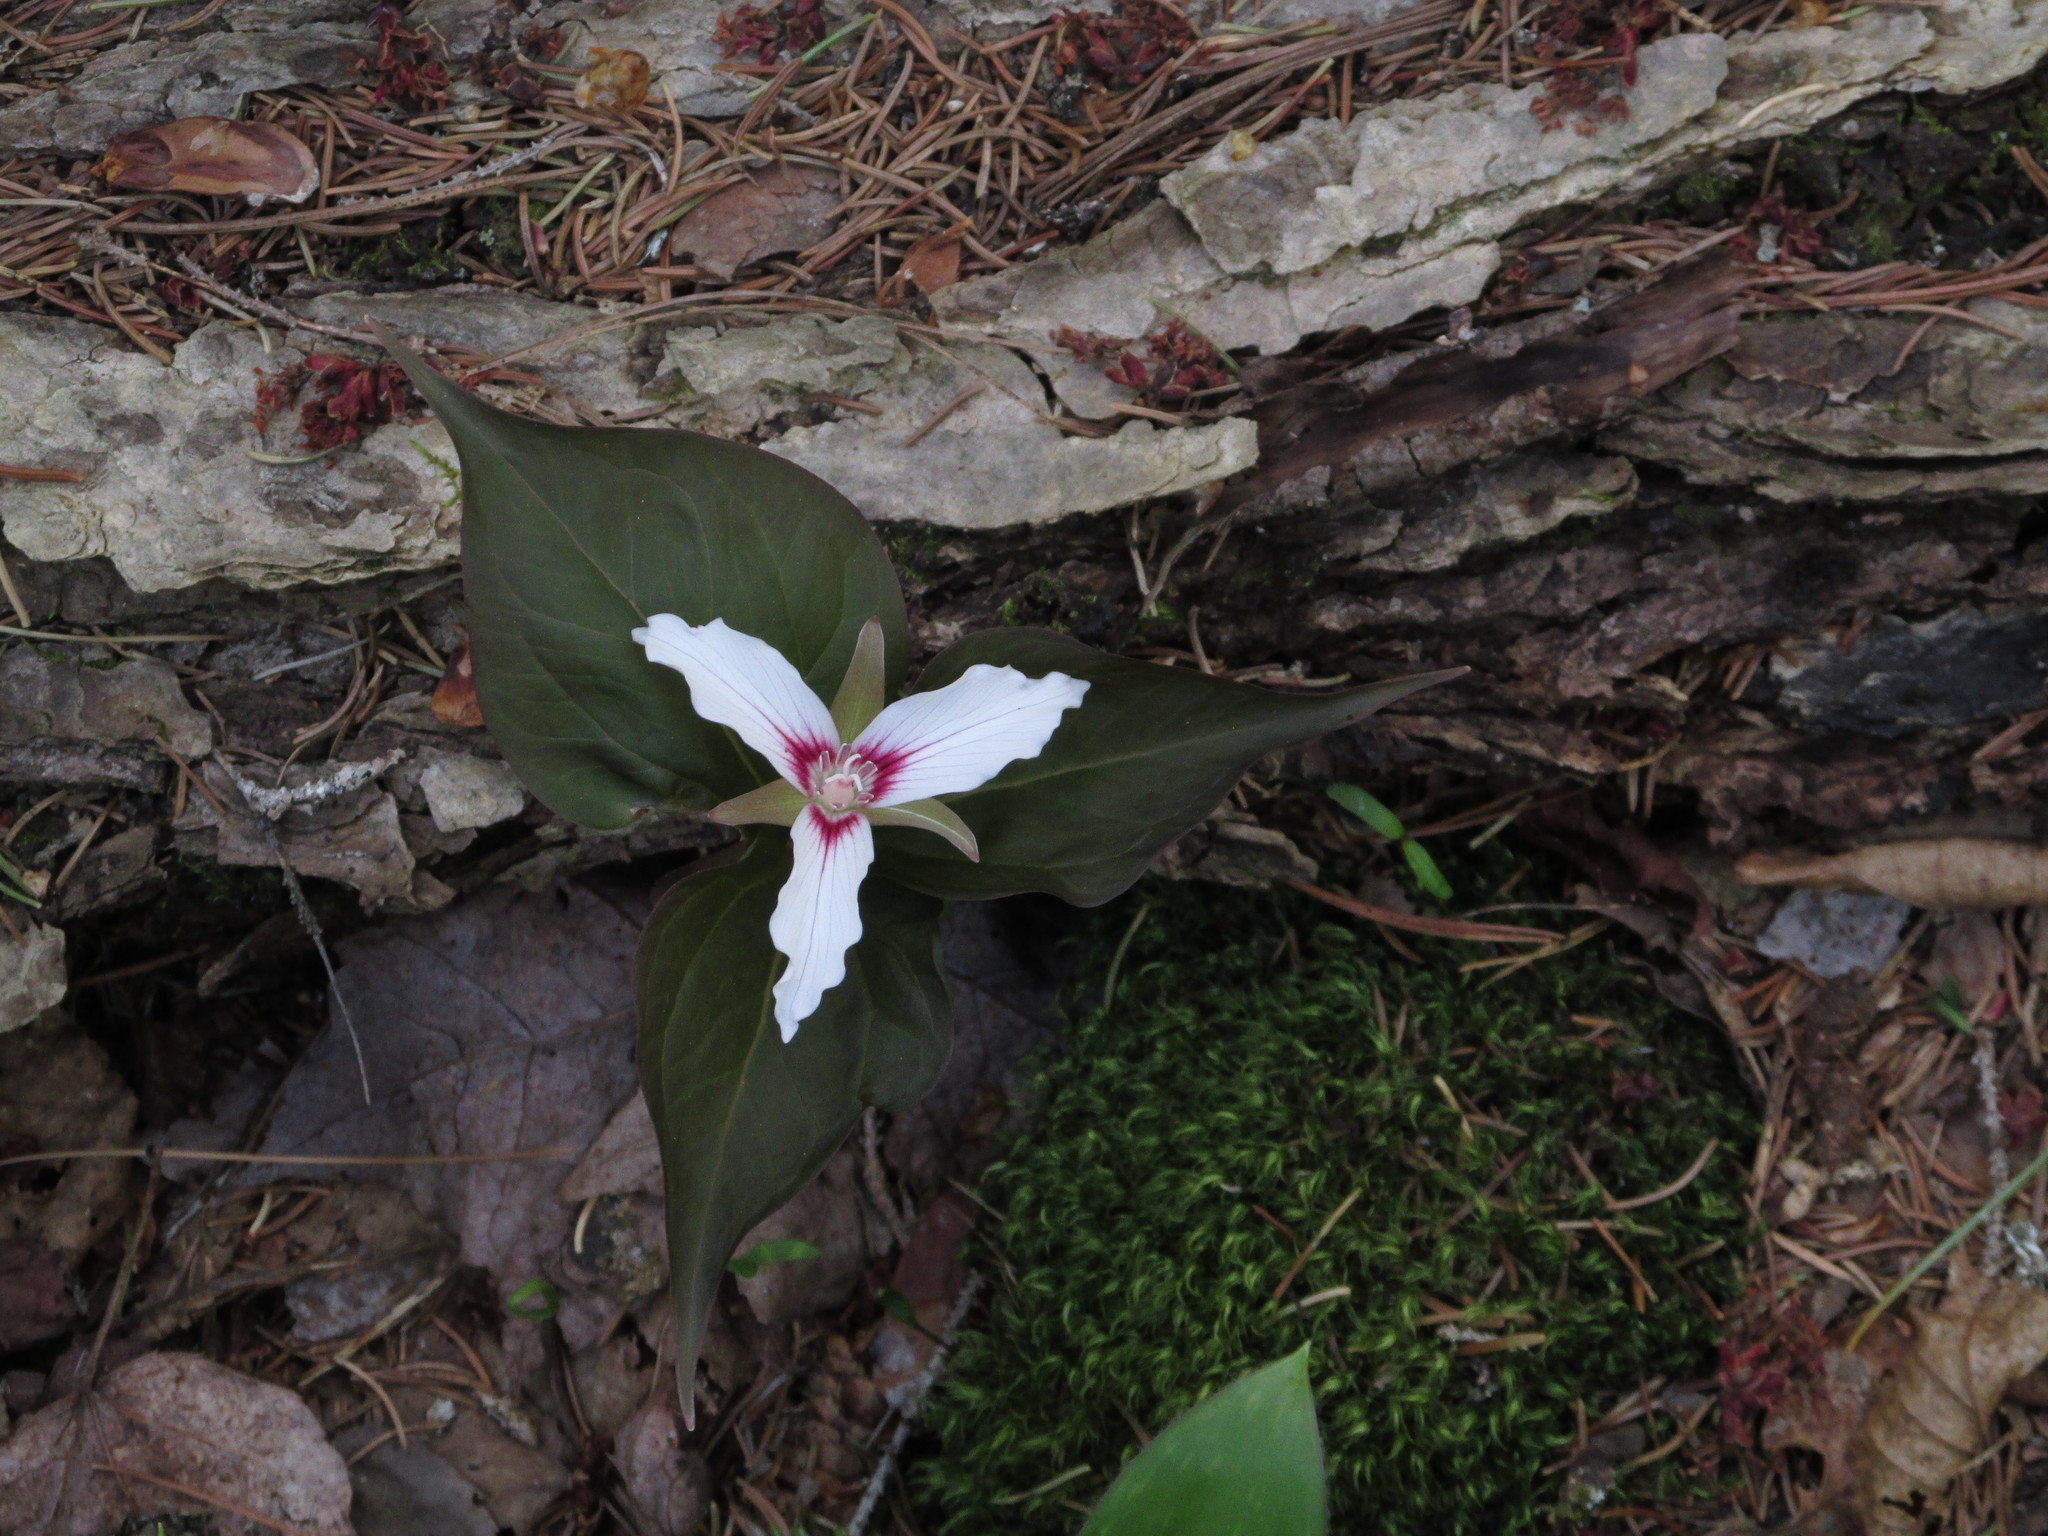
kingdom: Plantae
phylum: Tracheophyta
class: Liliopsida
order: Liliales
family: Melanthiaceae
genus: Trillium
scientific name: Trillium undulatum
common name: Paint trillium
